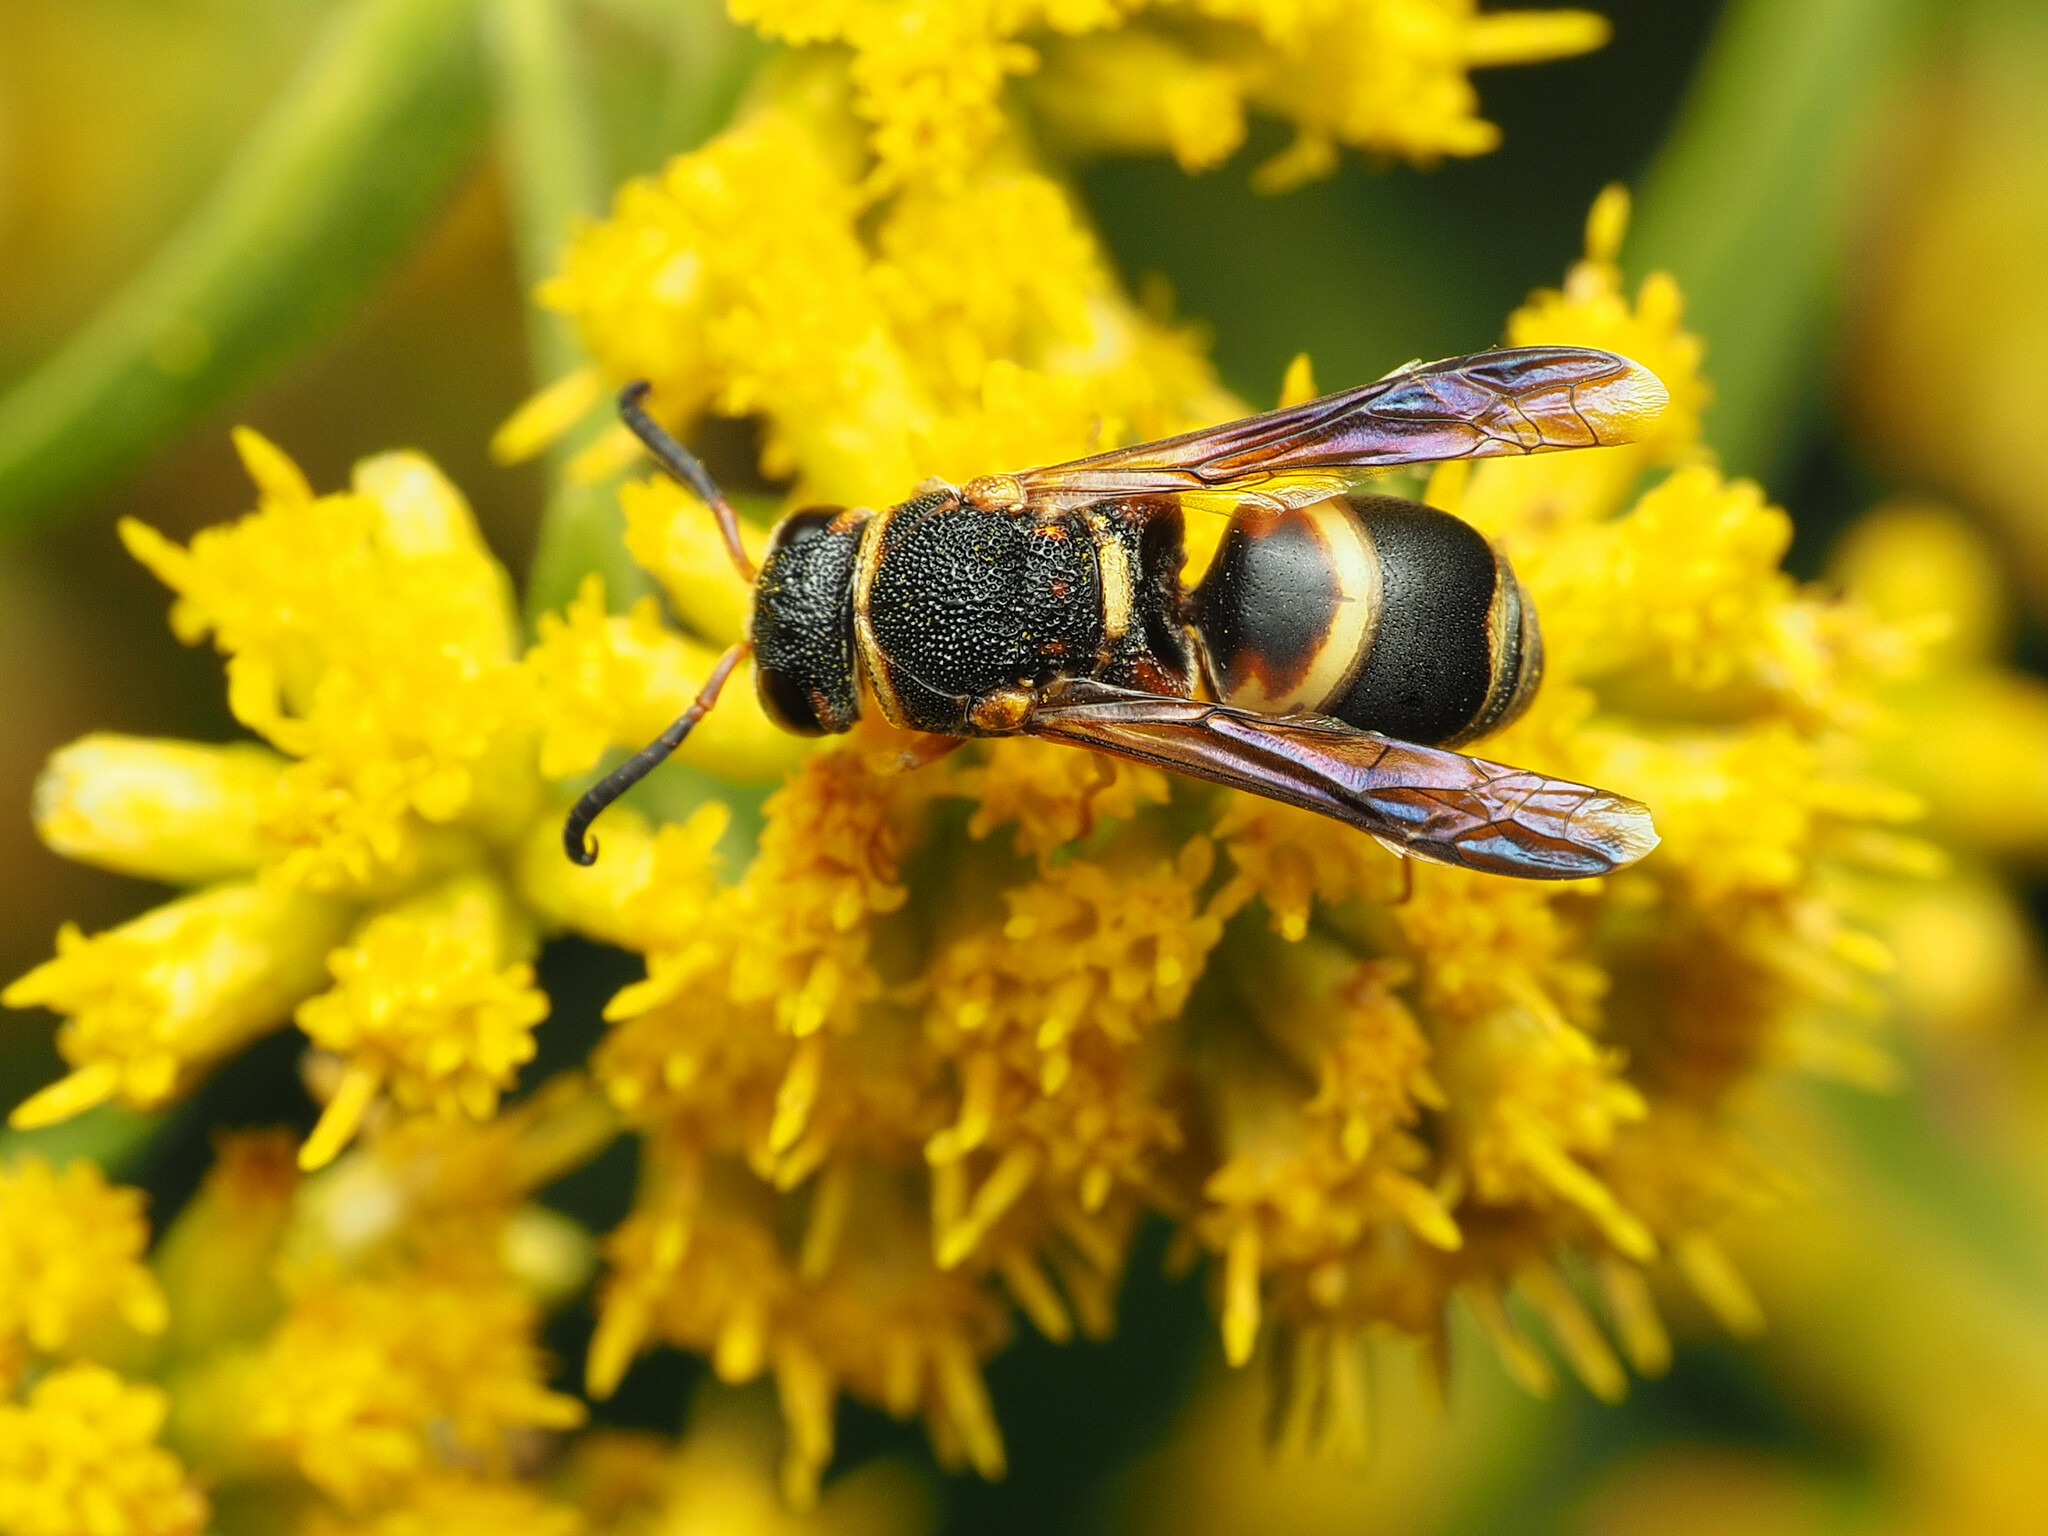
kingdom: Animalia
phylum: Arthropoda
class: Insecta
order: Hymenoptera
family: Eumenidae
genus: Euodynerus
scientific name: Euodynerus hidalgo
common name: Wasp
